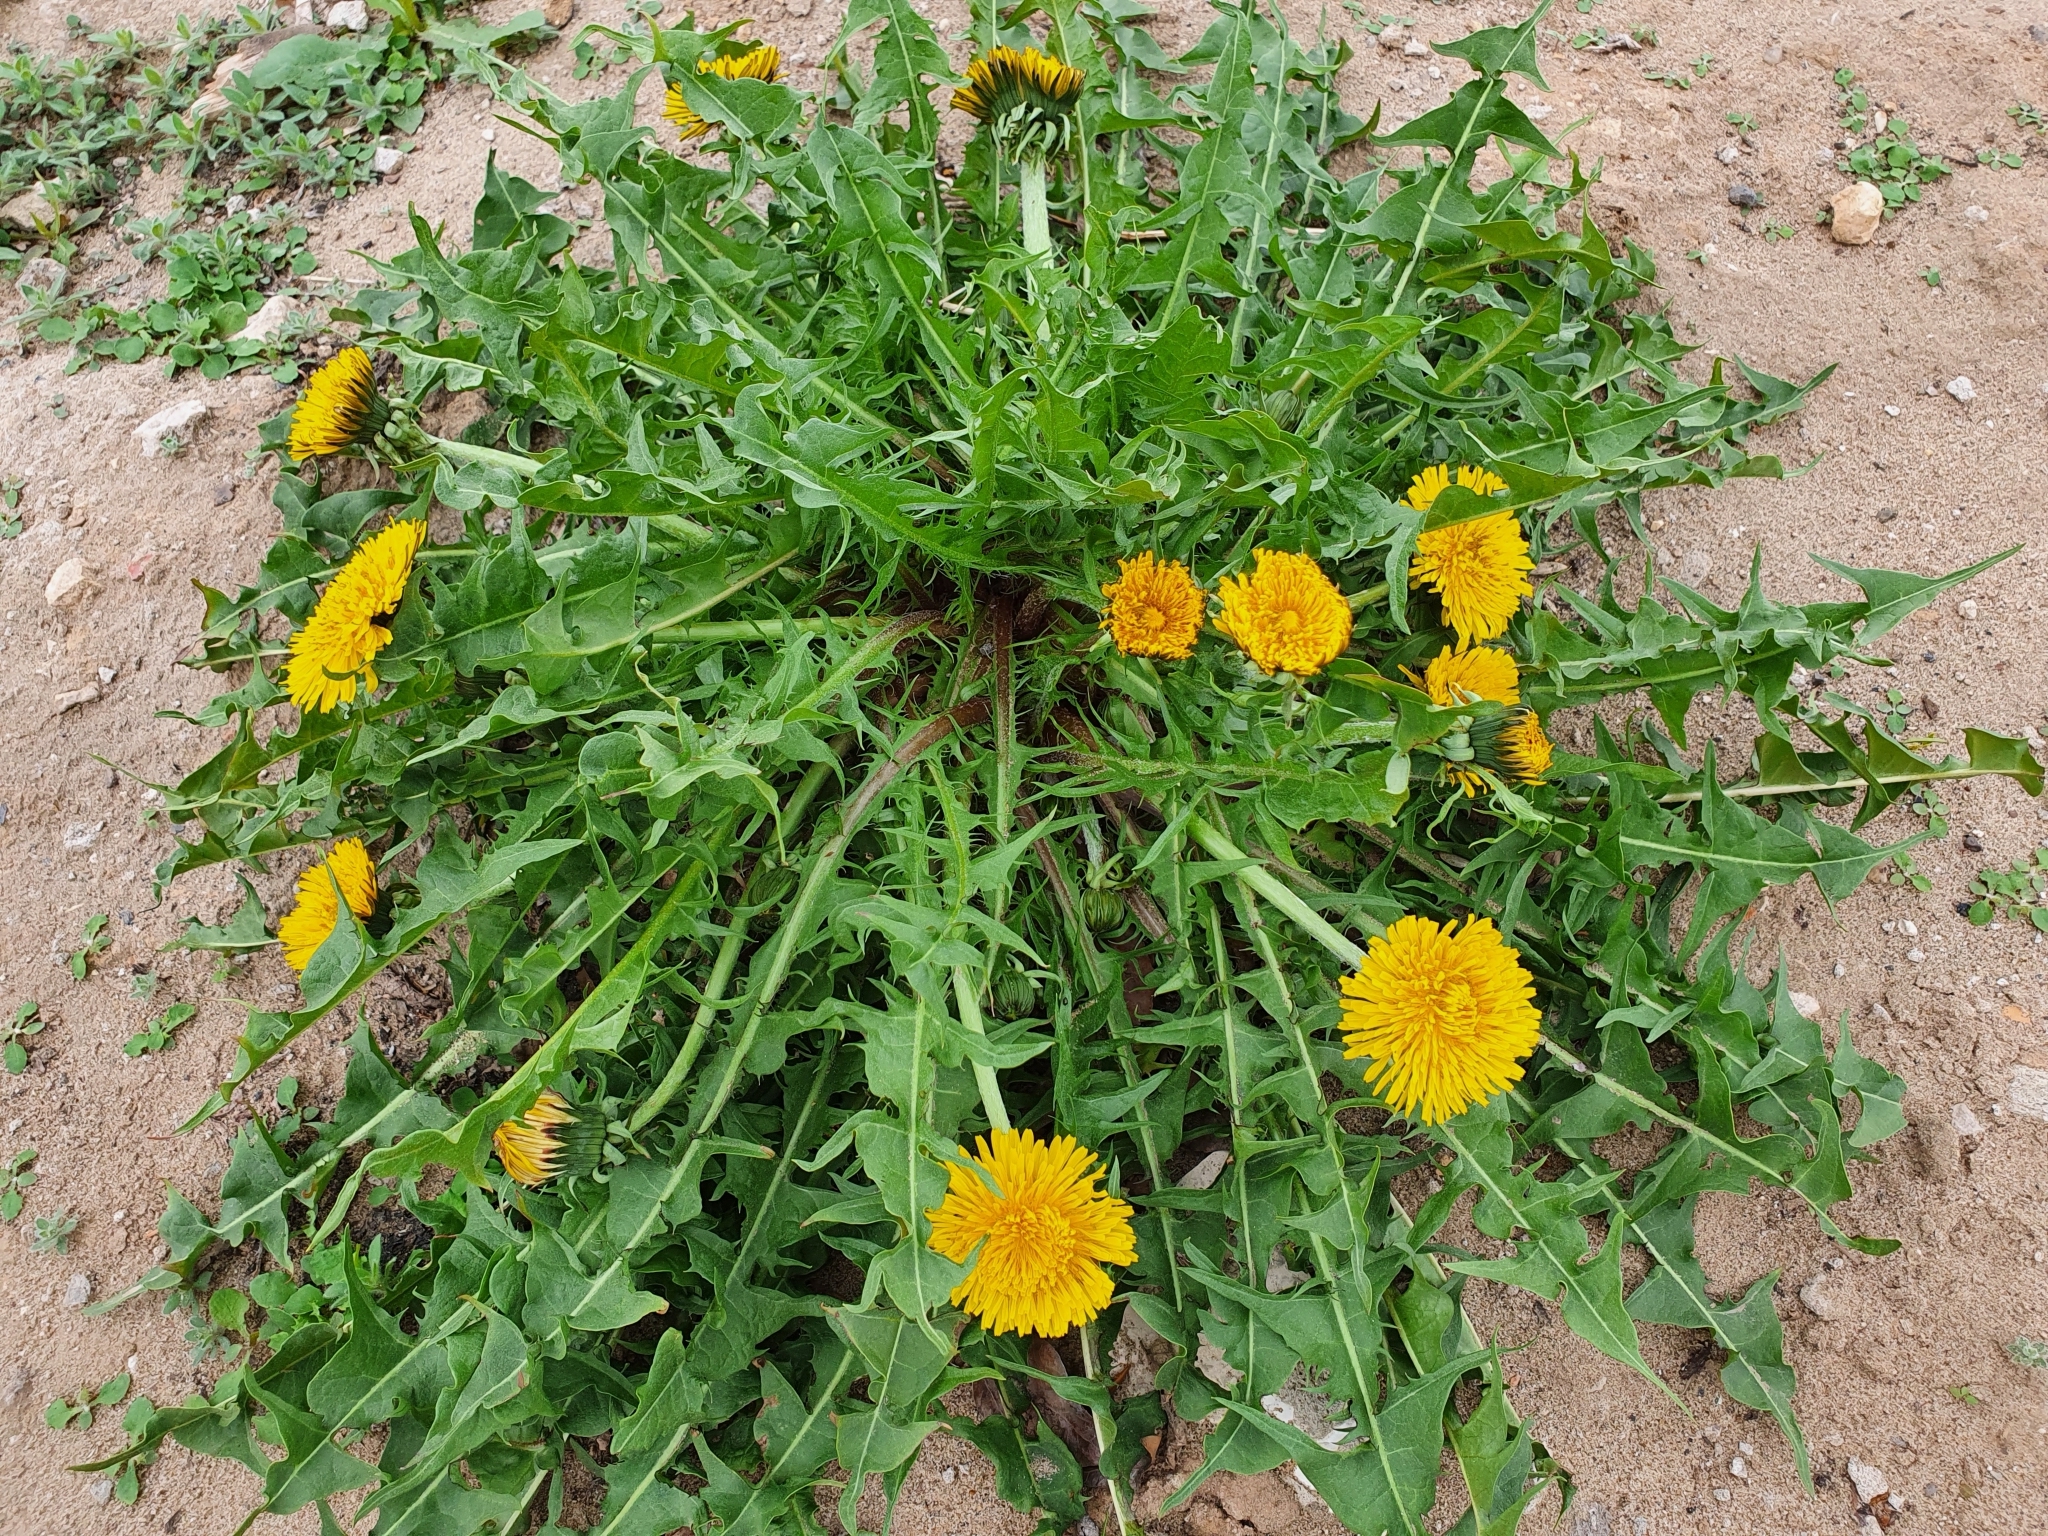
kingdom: Plantae
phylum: Tracheophyta
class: Magnoliopsida
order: Asterales
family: Asteraceae
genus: Taraxacum
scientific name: Taraxacum officinale
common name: Common dandelion
